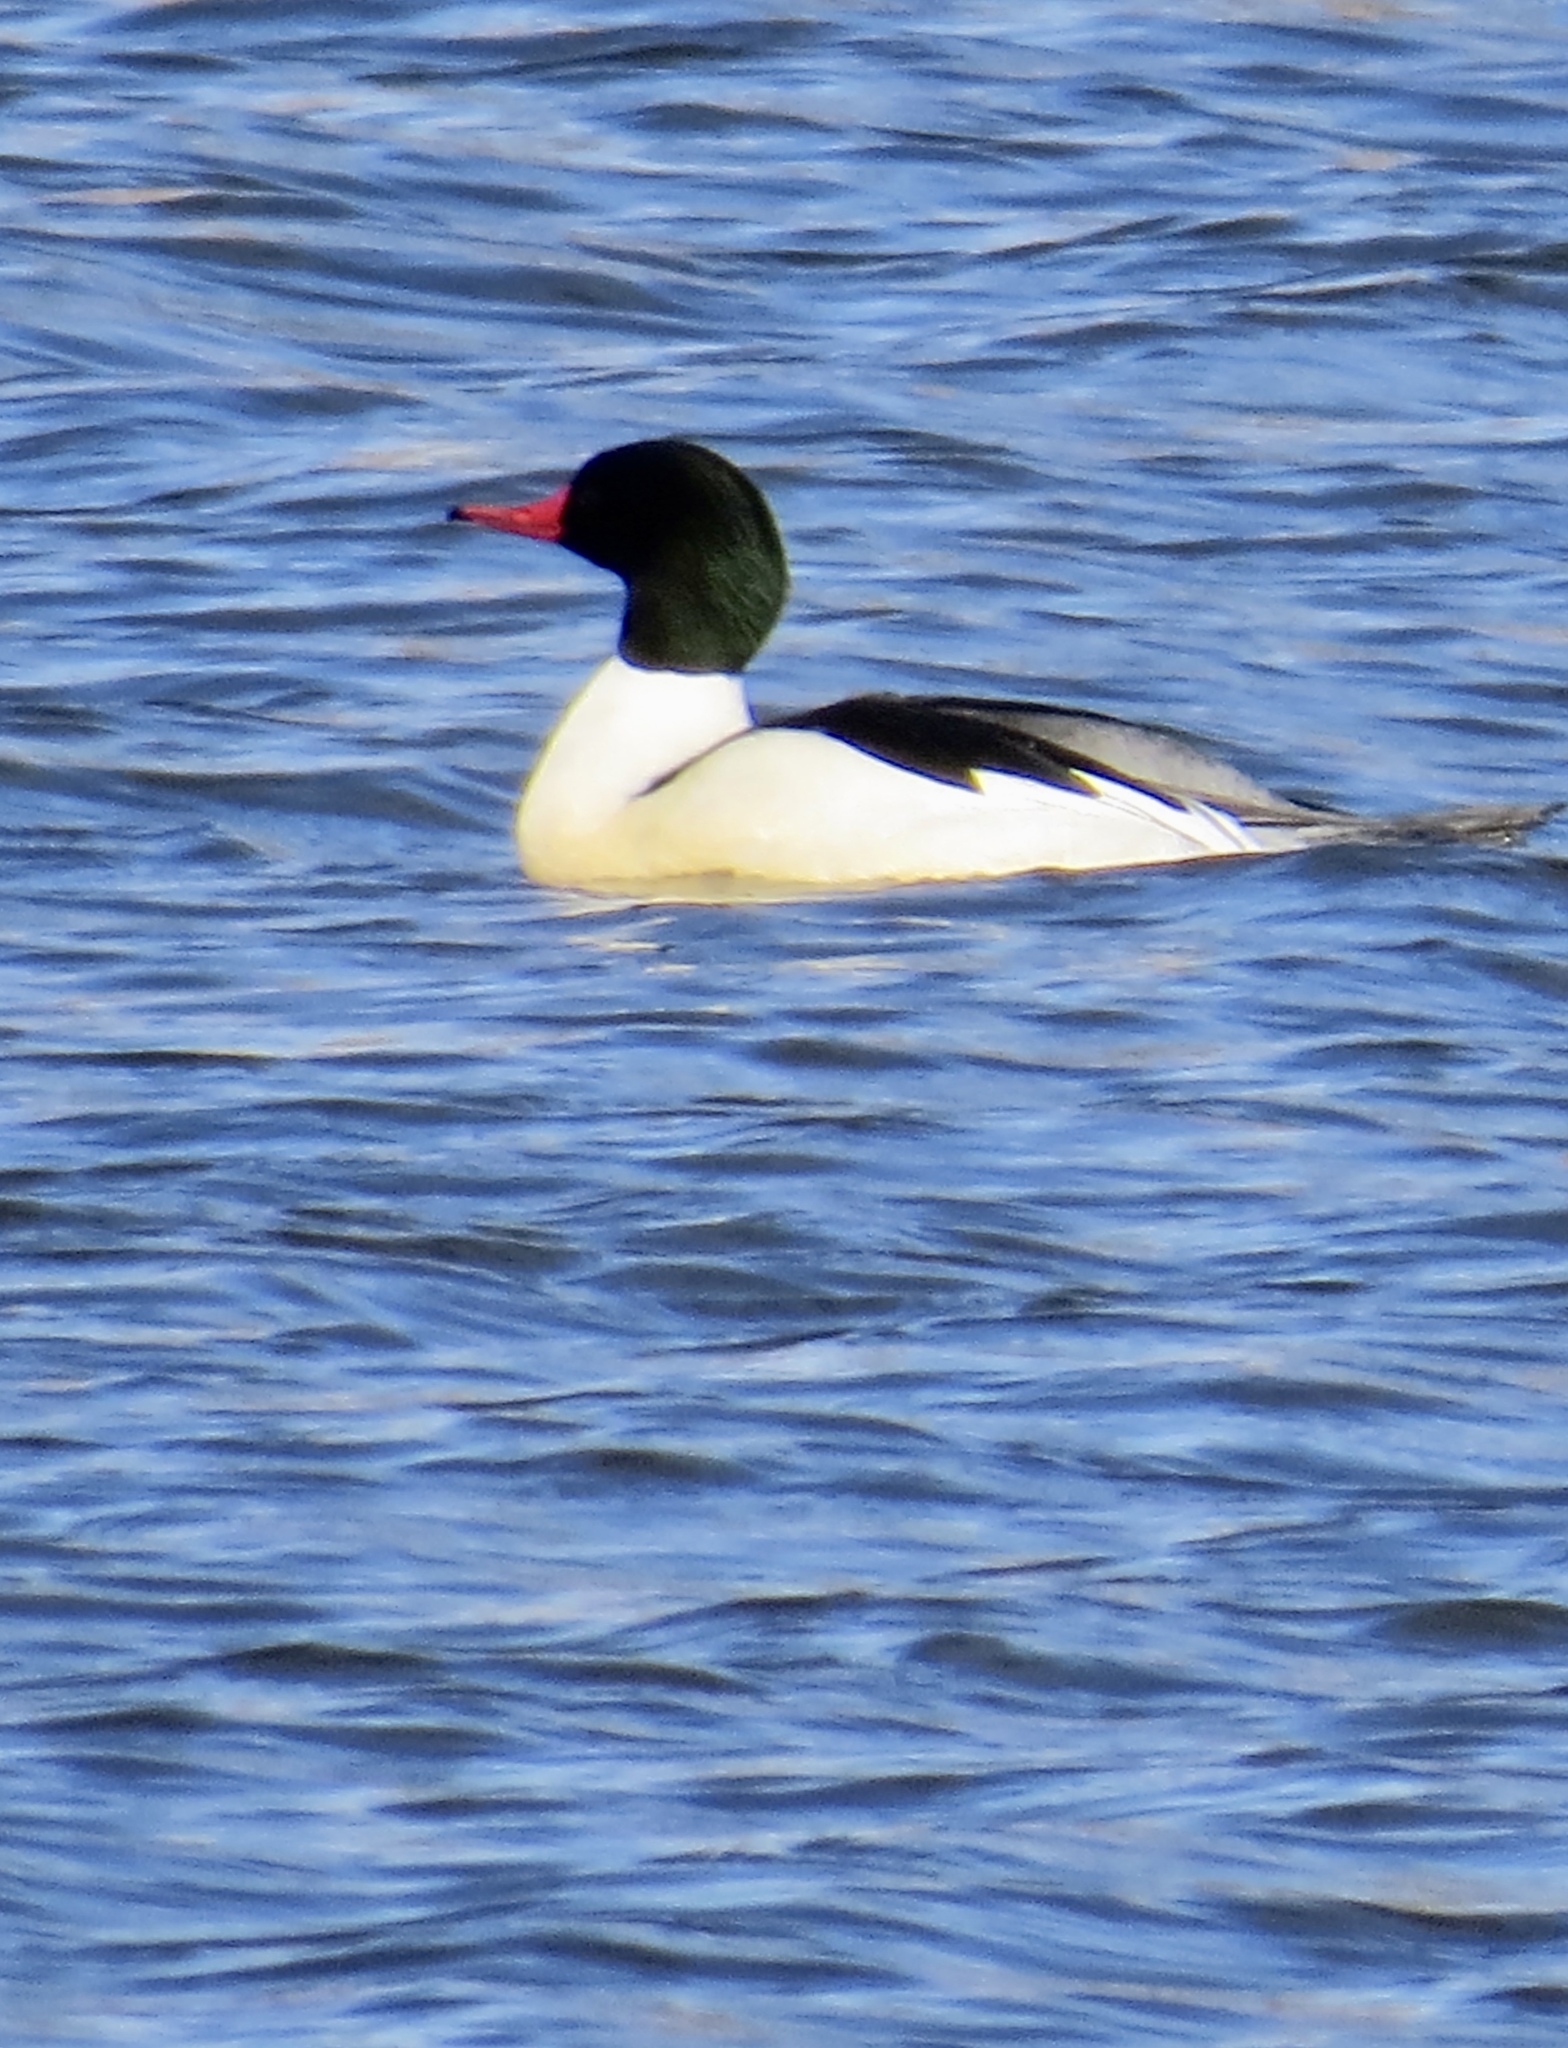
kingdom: Animalia
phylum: Chordata
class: Aves
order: Anseriformes
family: Anatidae
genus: Mergus
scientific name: Mergus merganser
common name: Common merganser
